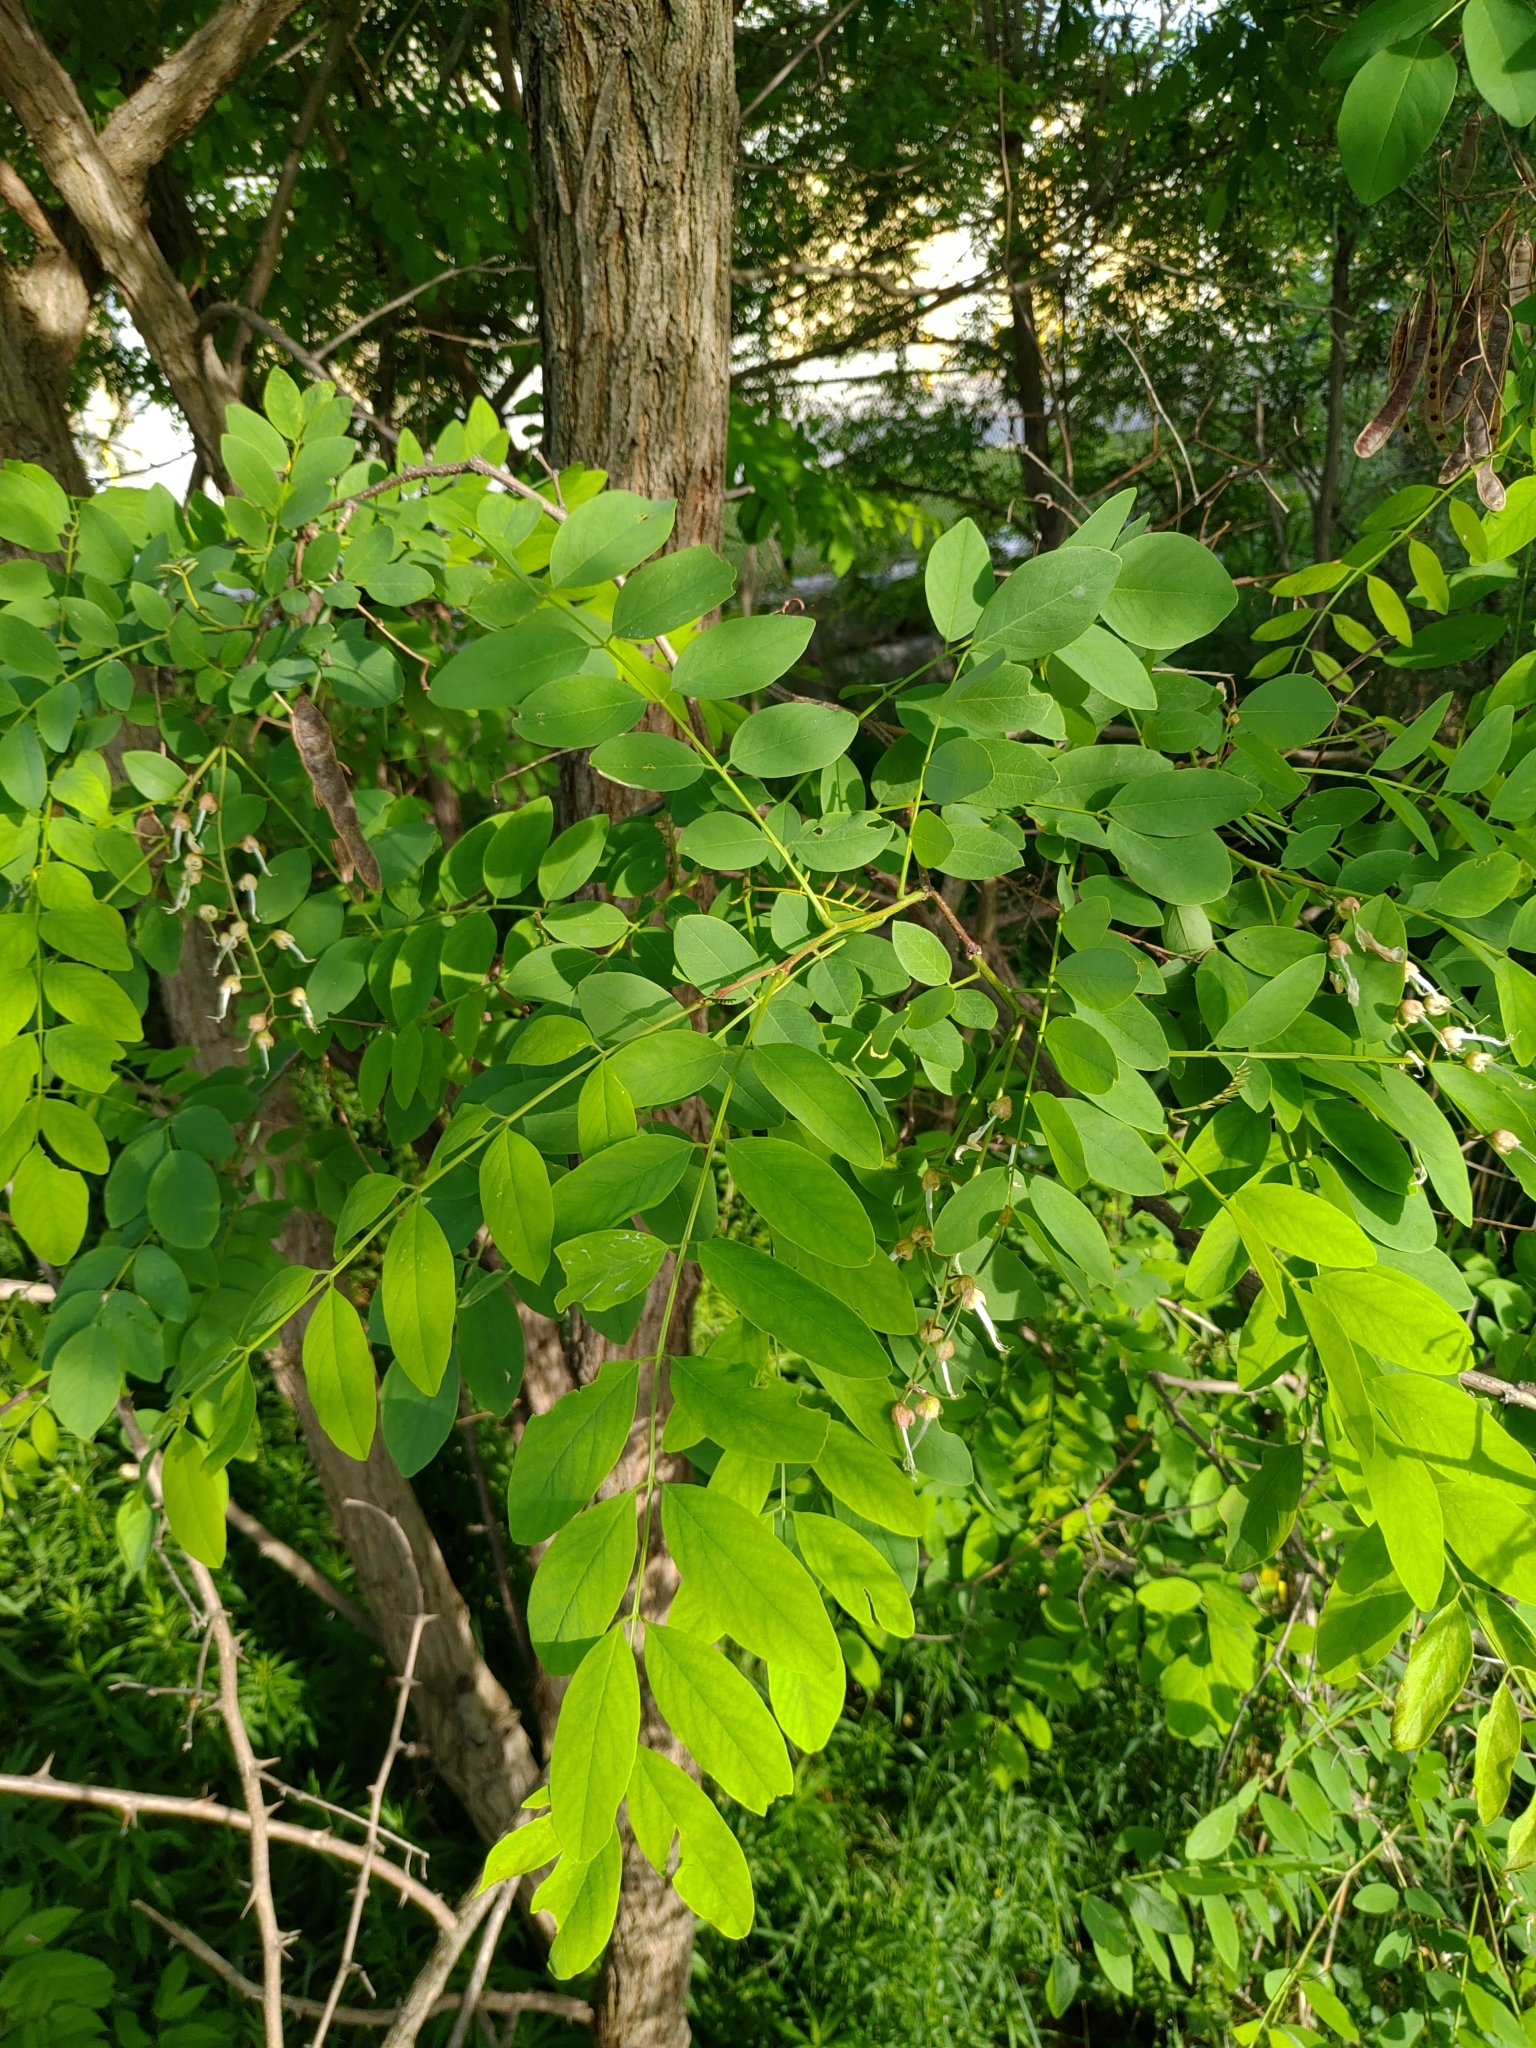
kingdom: Plantae
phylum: Tracheophyta
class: Magnoliopsida
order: Fabales
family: Fabaceae
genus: Robinia
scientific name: Robinia pseudoacacia
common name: Black locust
